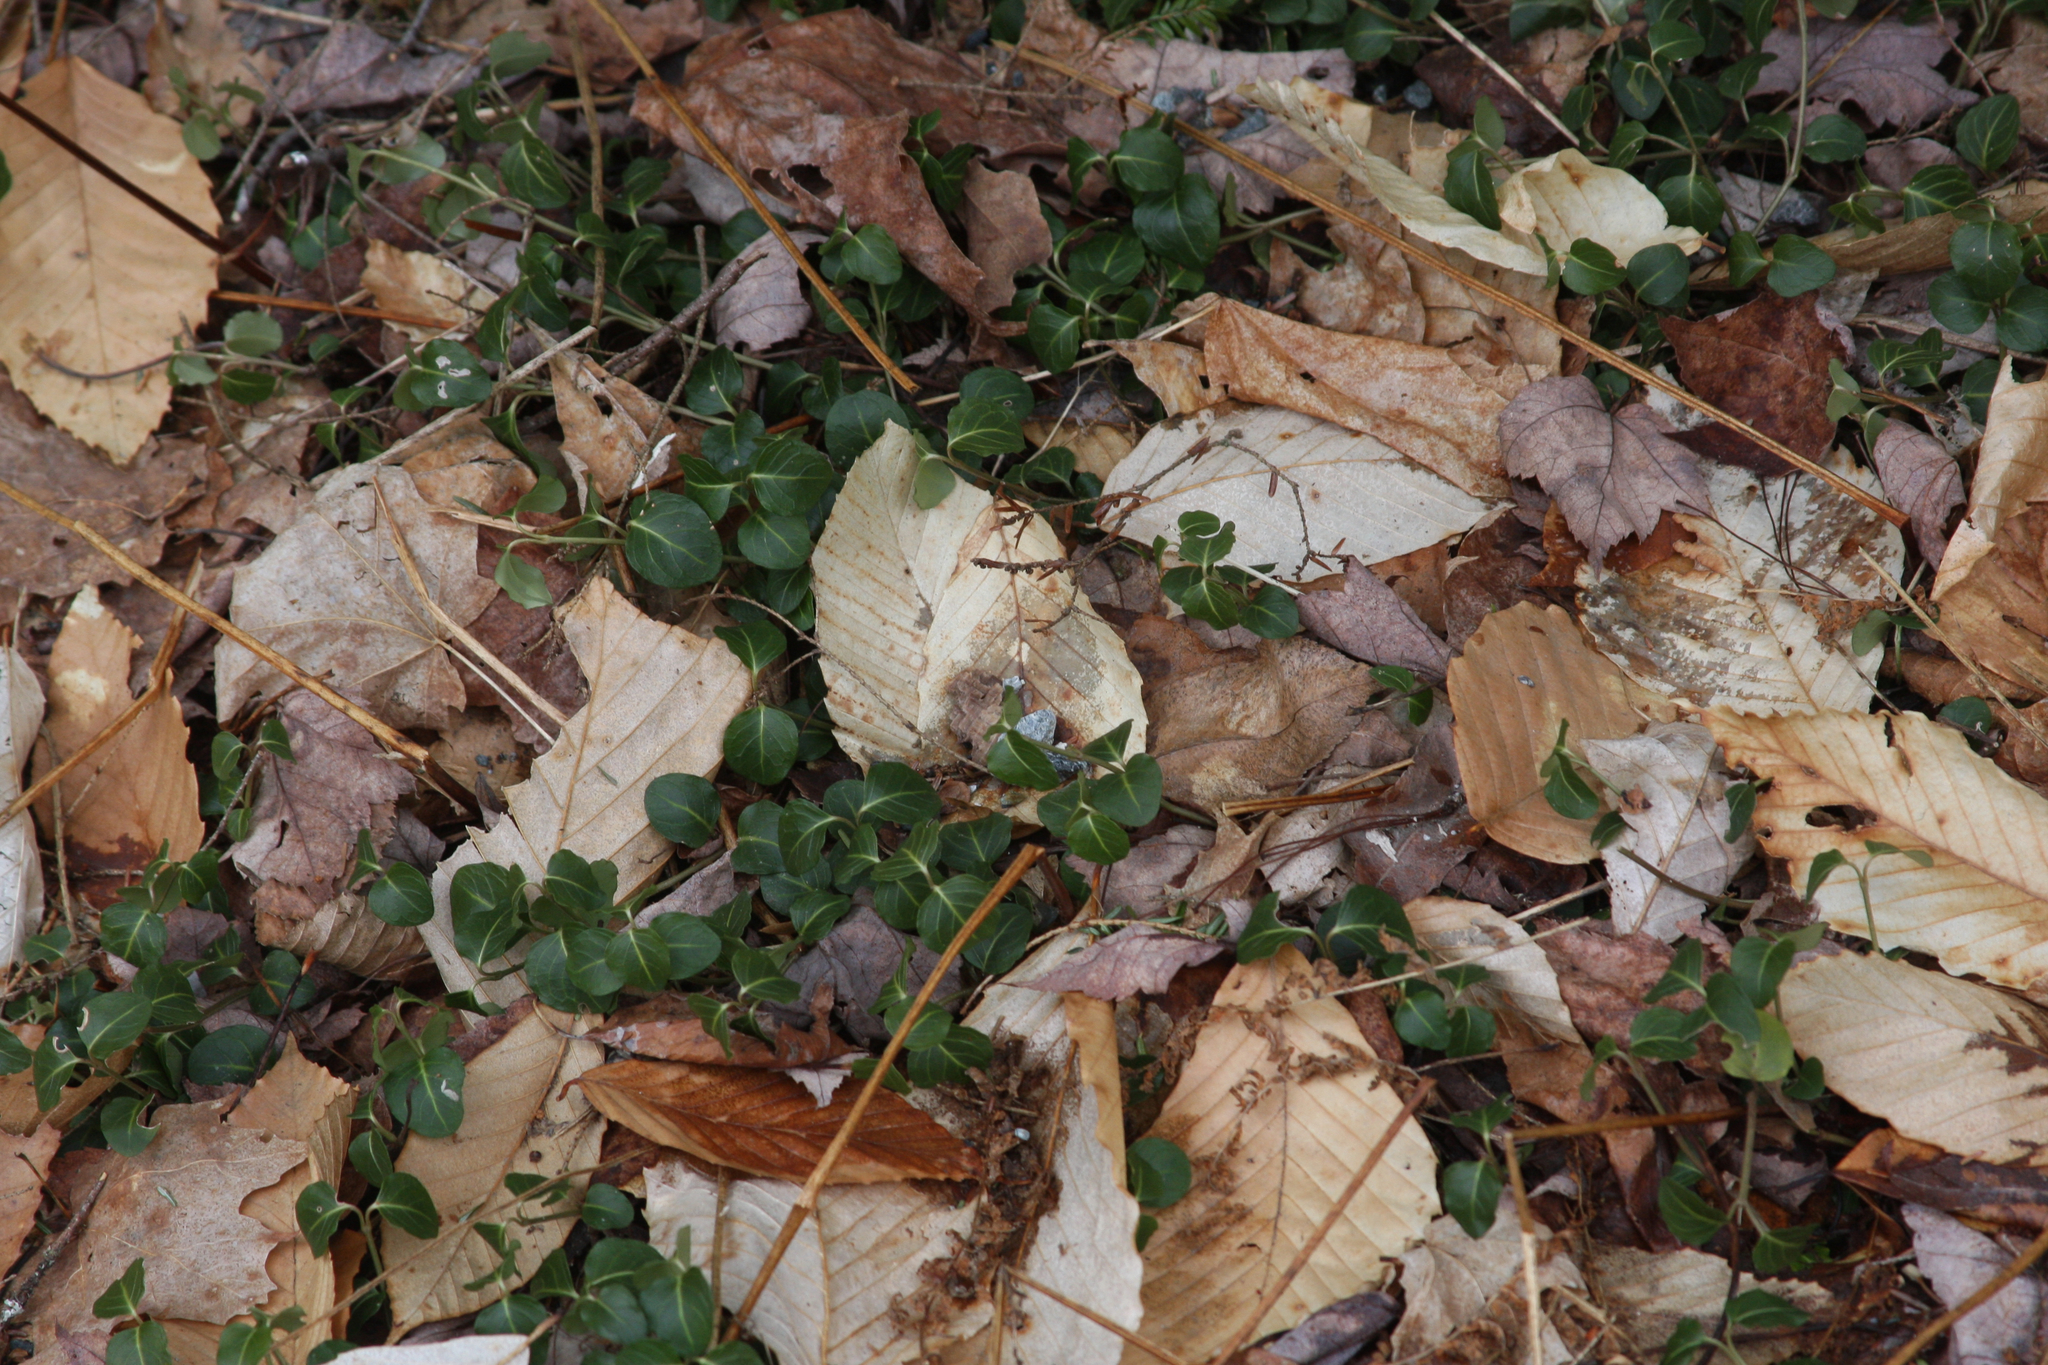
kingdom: Plantae
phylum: Tracheophyta
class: Magnoliopsida
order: Gentianales
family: Rubiaceae
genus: Mitchella
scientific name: Mitchella repens
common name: Partridge-berry
